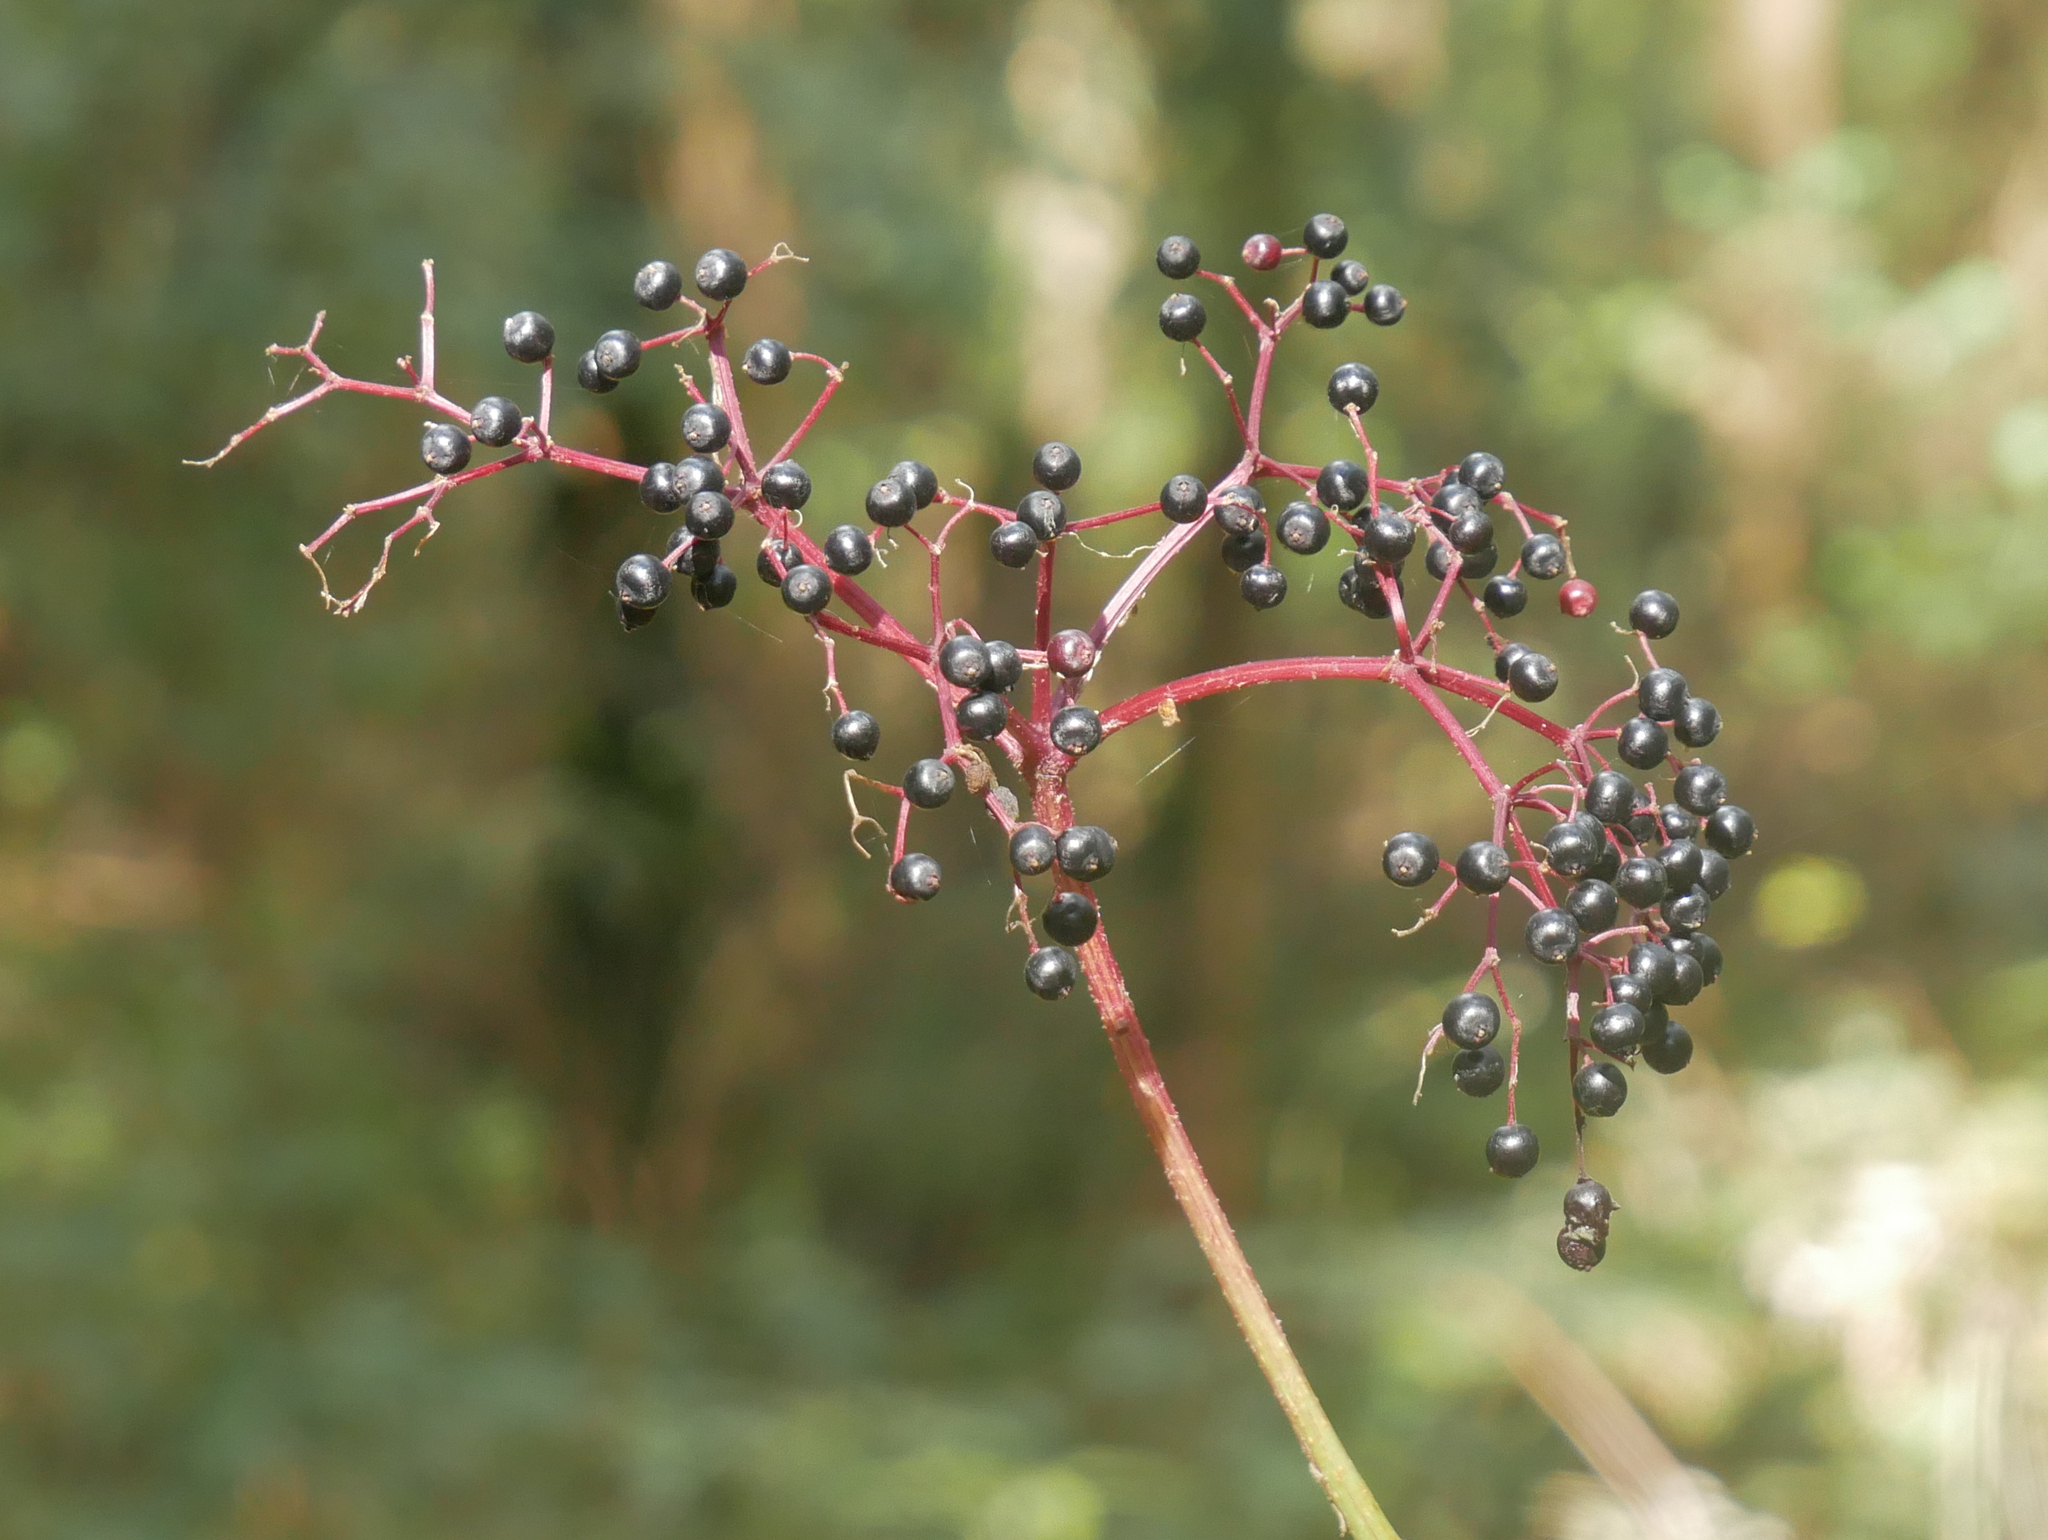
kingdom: Plantae
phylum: Tracheophyta
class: Magnoliopsida
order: Dipsacales
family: Viburnaceae
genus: Sambucus
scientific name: Sambucus nigra
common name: Elder
